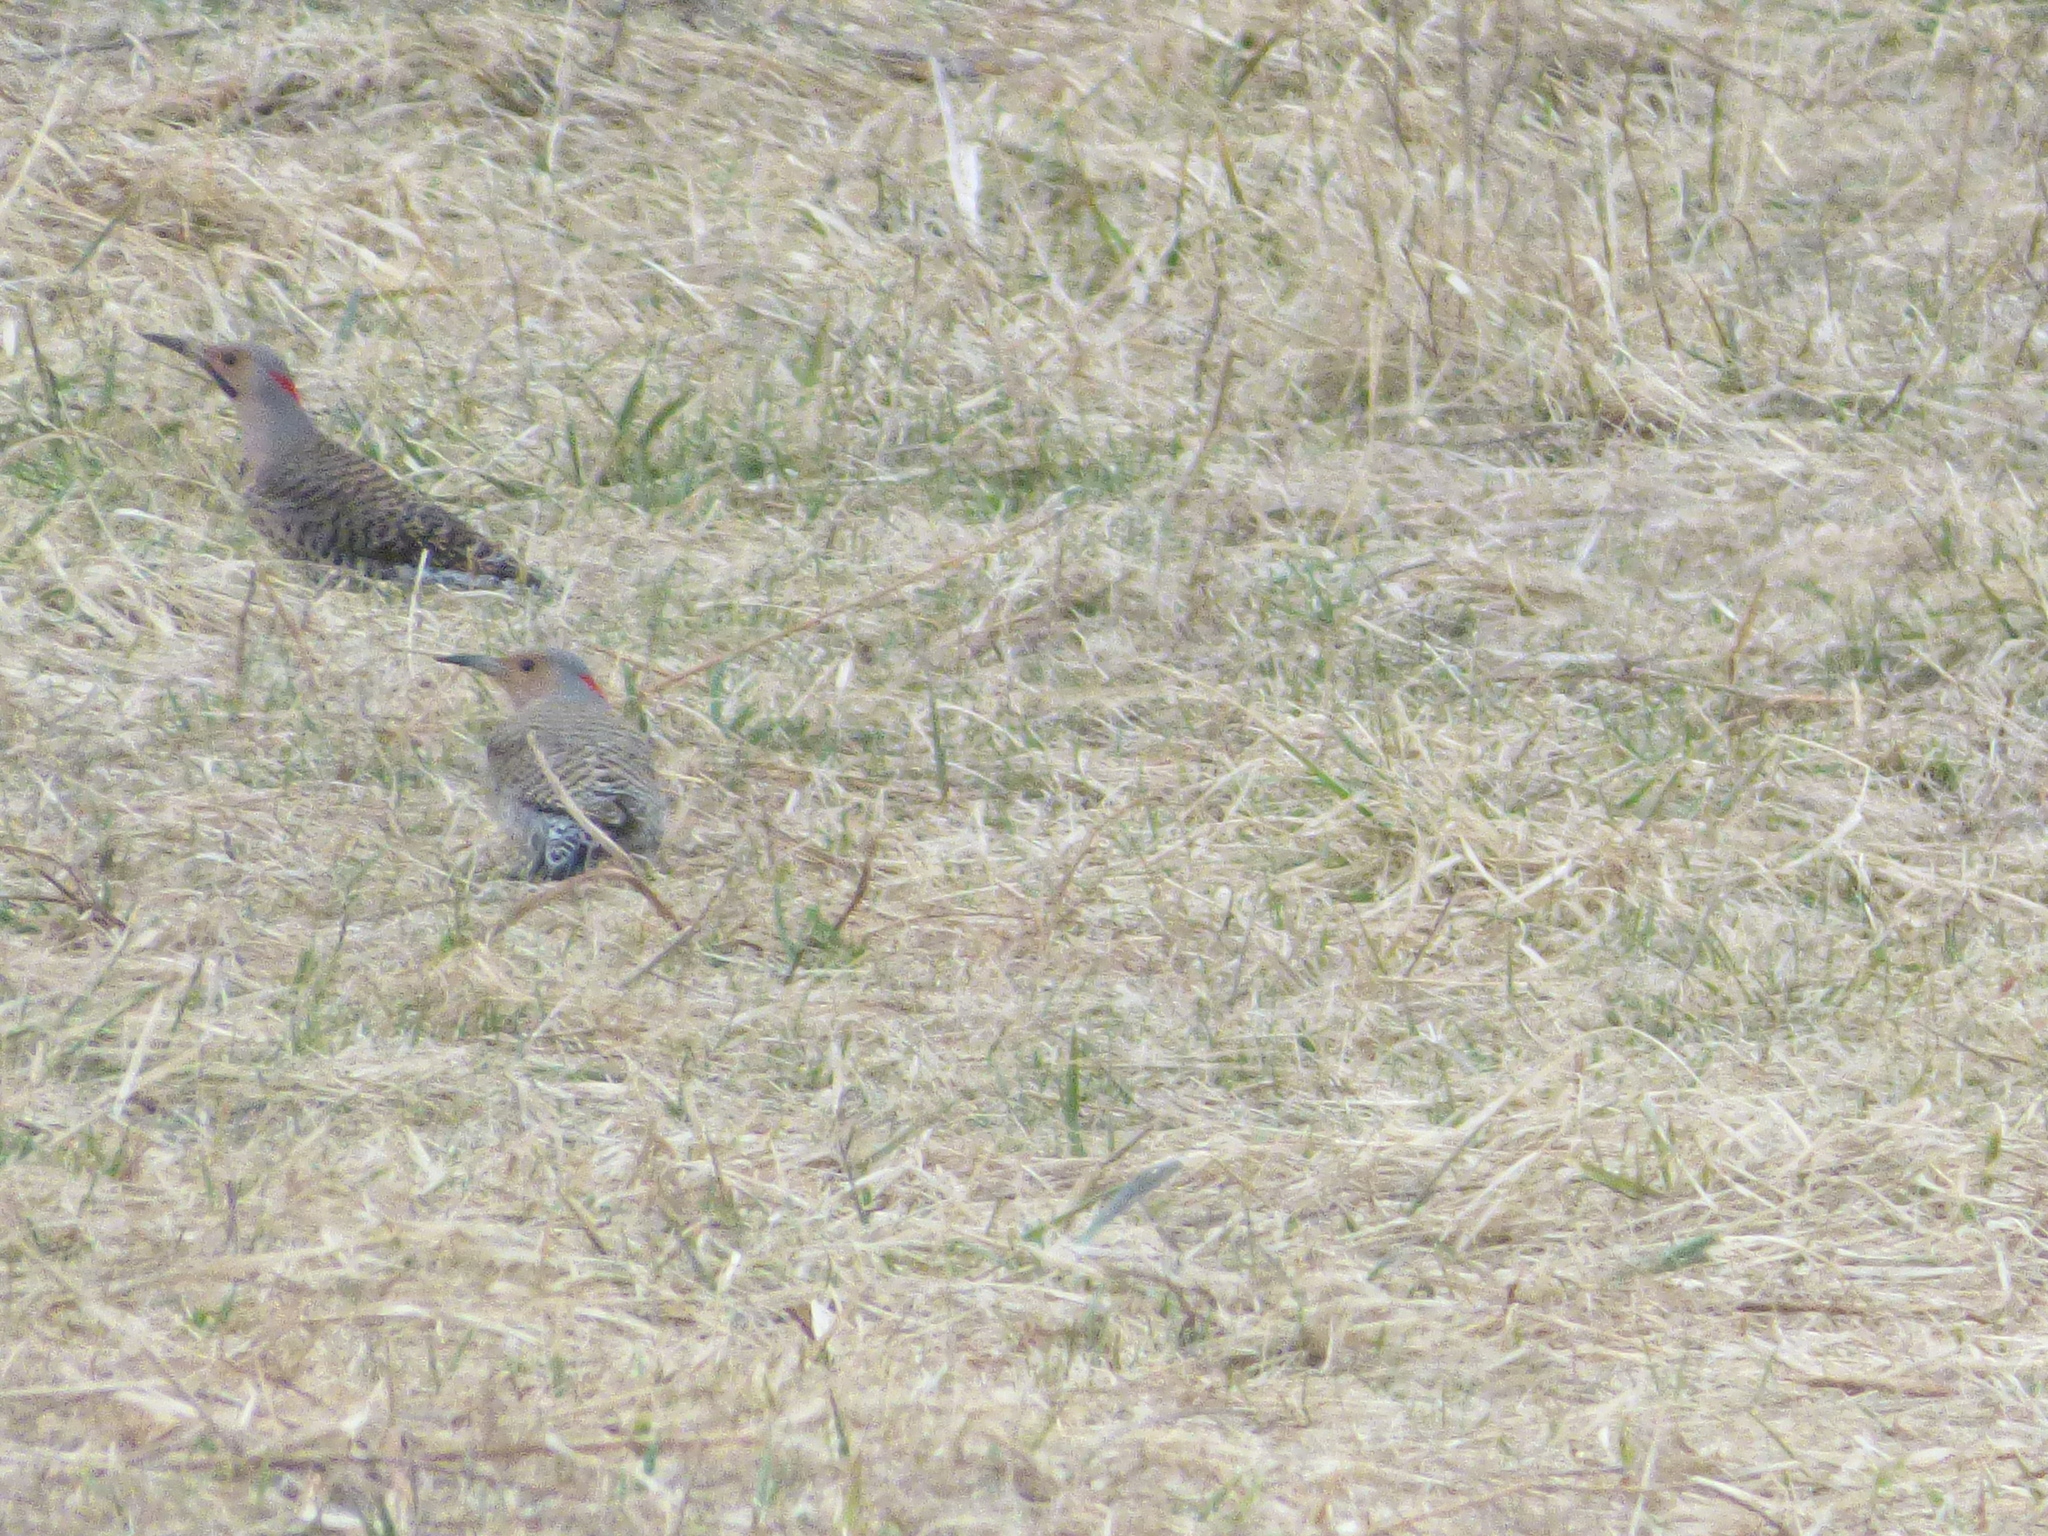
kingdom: Animalia
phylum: Chordata
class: Aves
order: Piciformes
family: Picidae
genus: Colaptes
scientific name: Colaptes auratus
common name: Northern flicker
